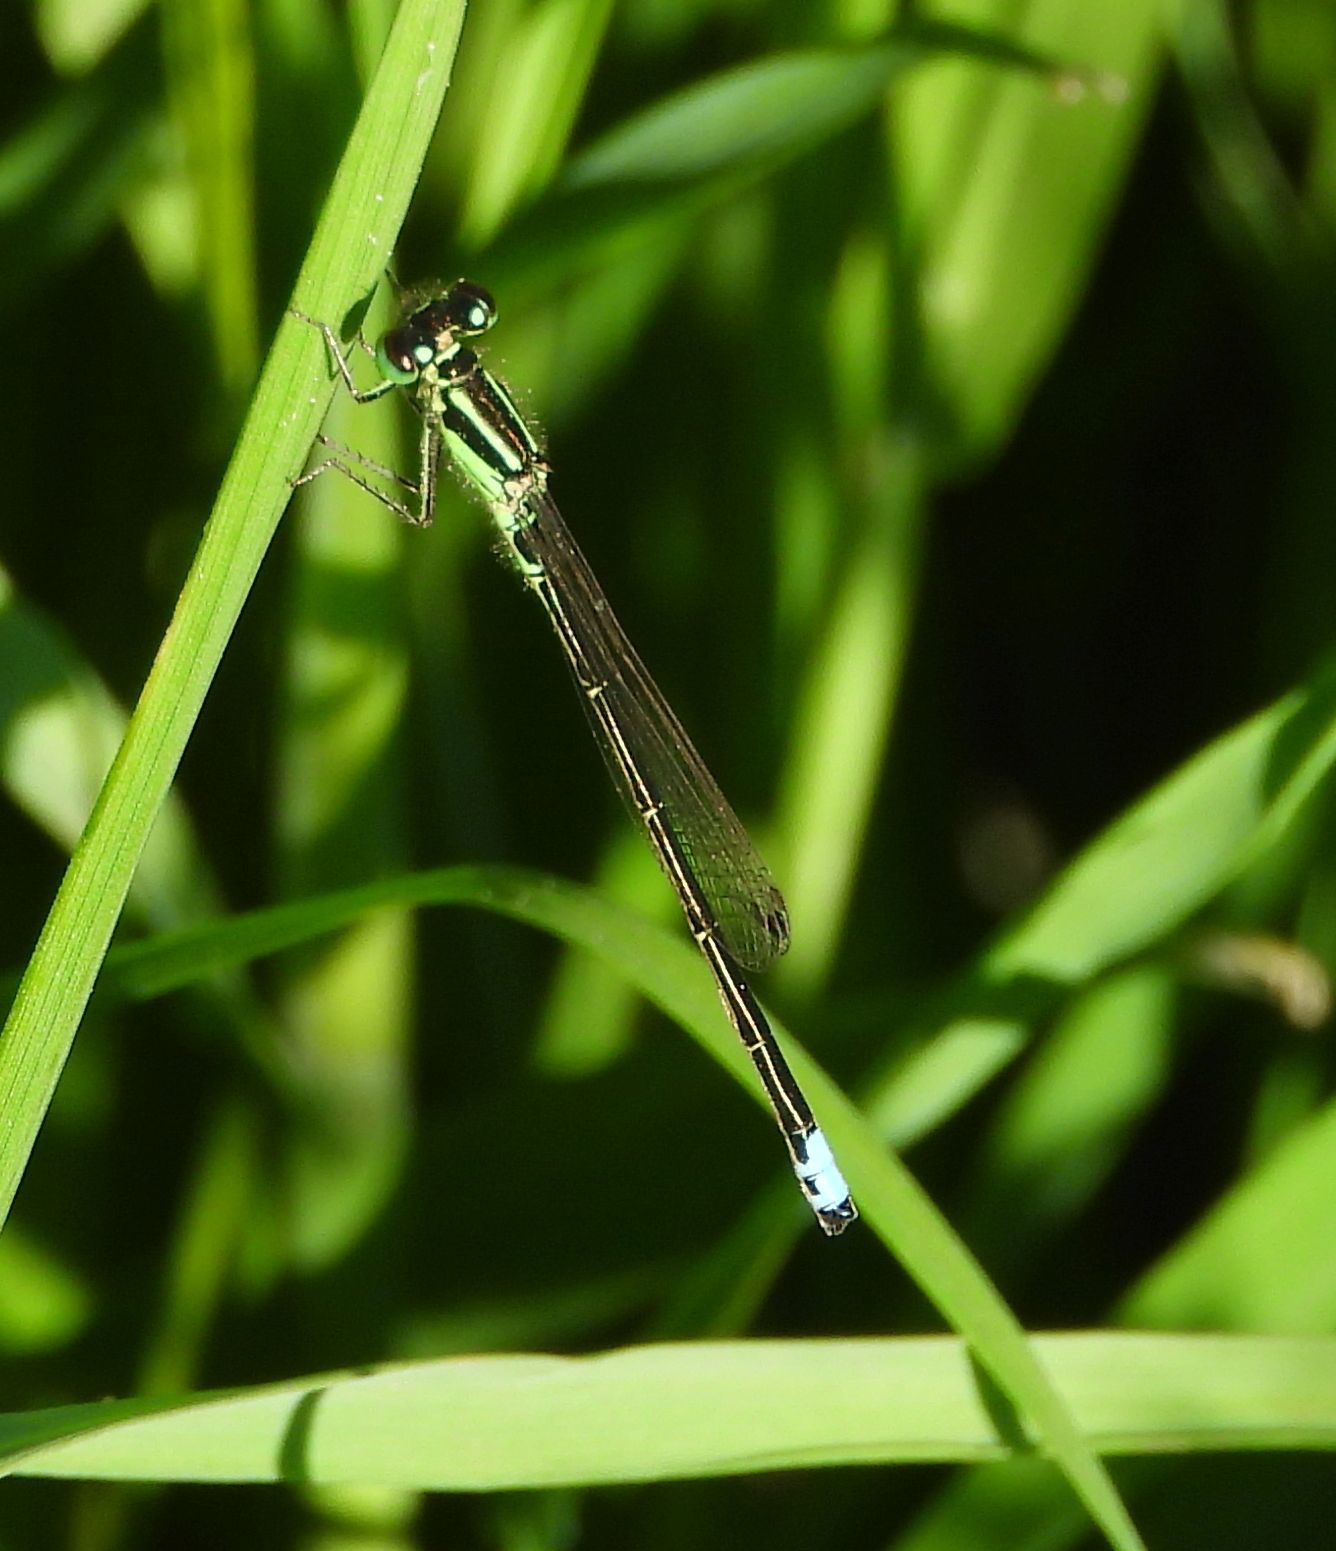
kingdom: Animalia
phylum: Arthropoda
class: Insecta
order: Odonata
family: Coenagrionidae
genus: Ischnura
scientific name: Ischnura verticalis
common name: Eastern forktail
